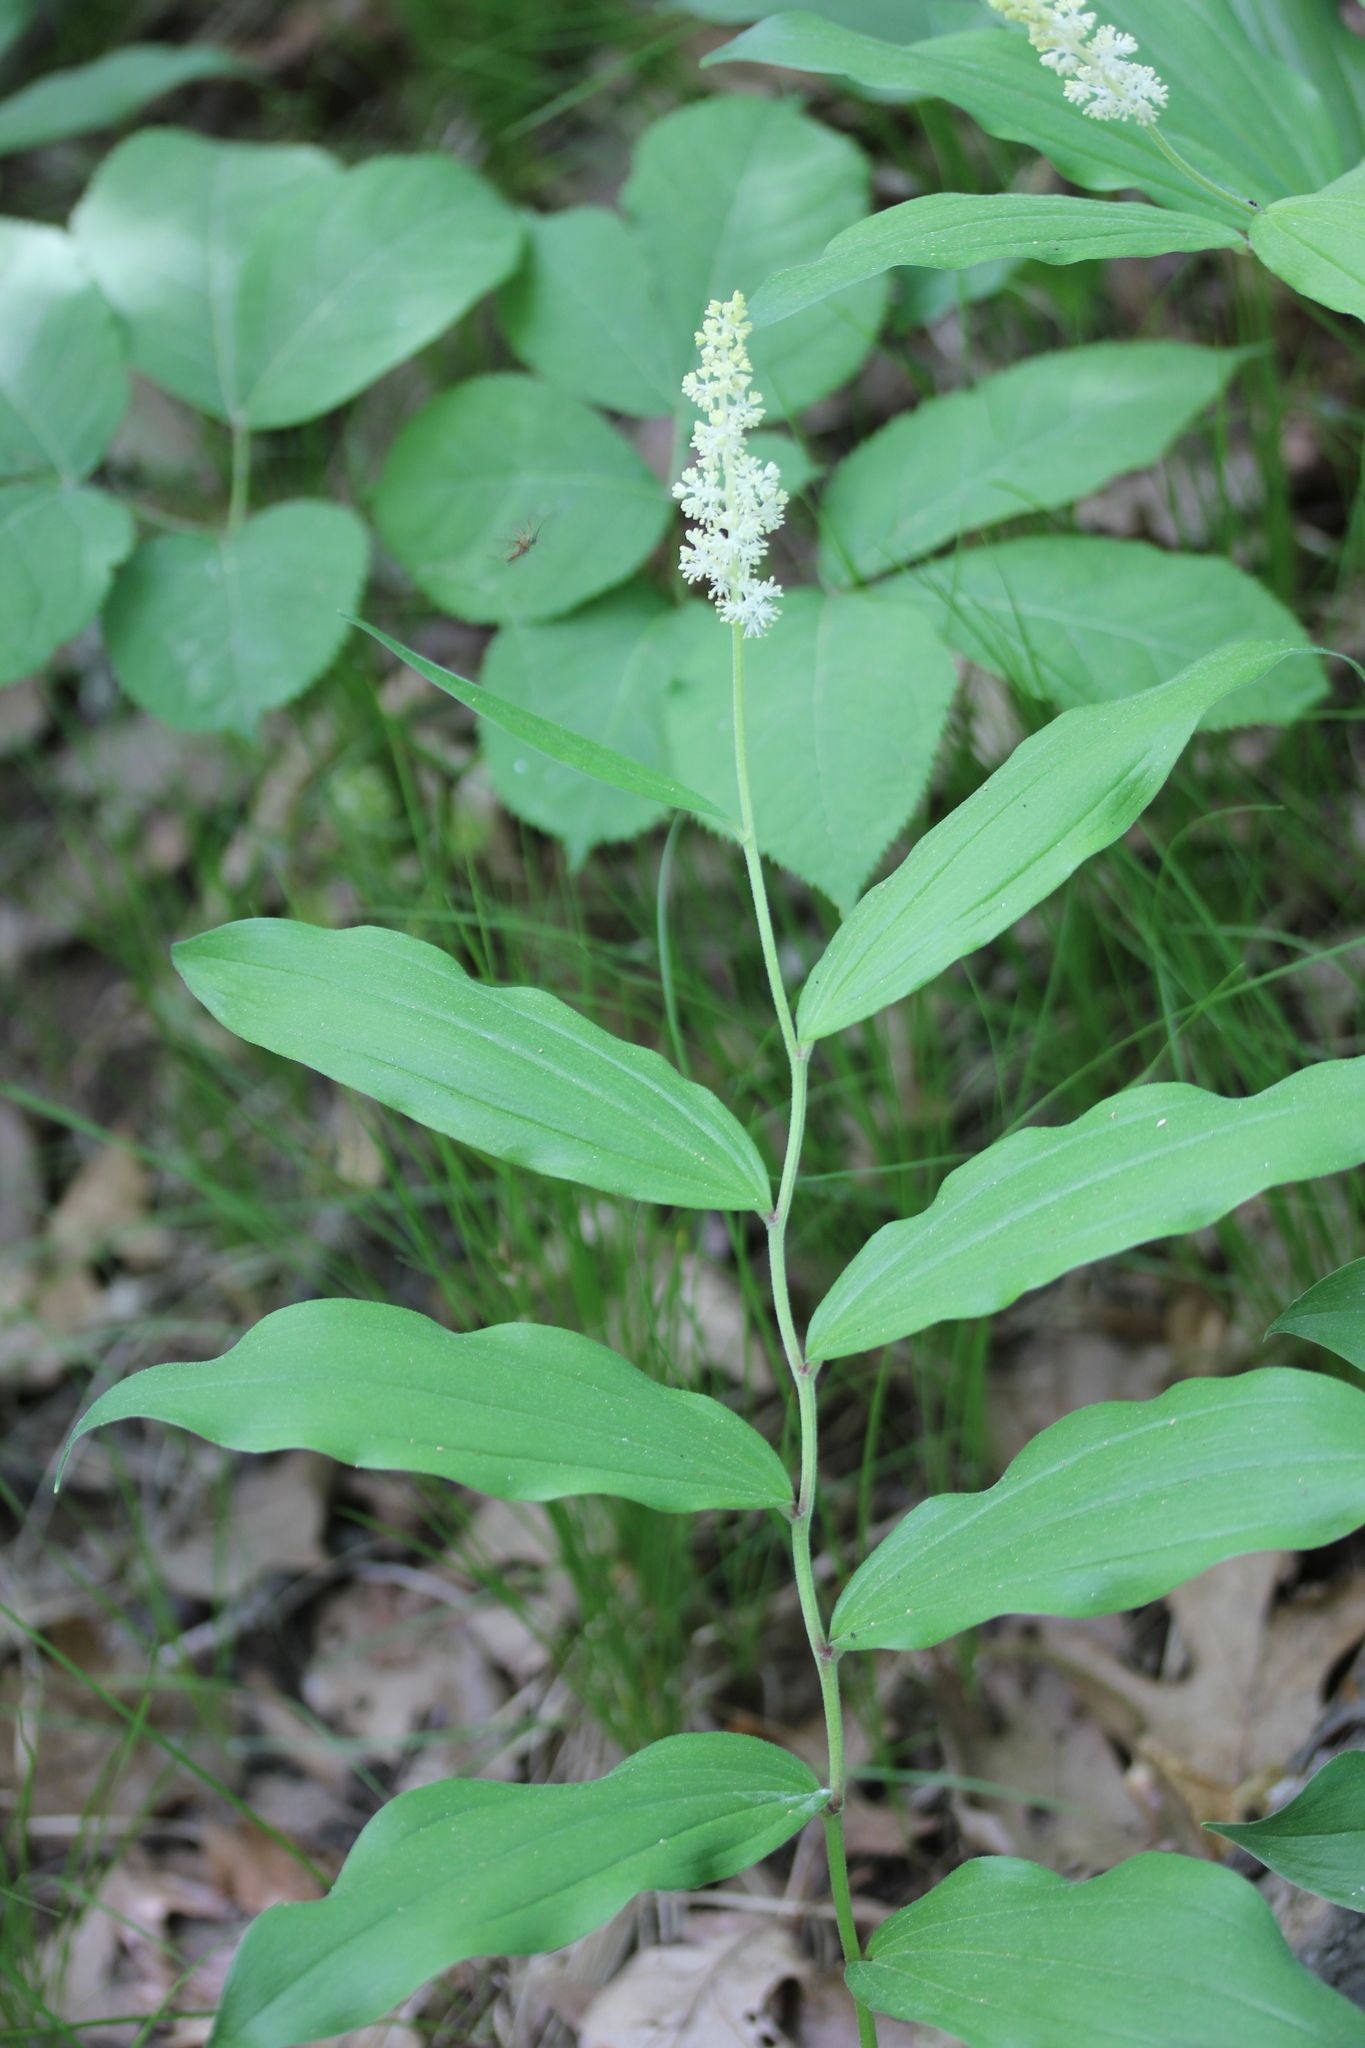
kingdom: Plantae
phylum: Tracheophyta
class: Liliopsida
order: Asparagales
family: Asparagaceae
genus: Maianthemum
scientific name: Maianthemum racemosum
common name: False spikenard
